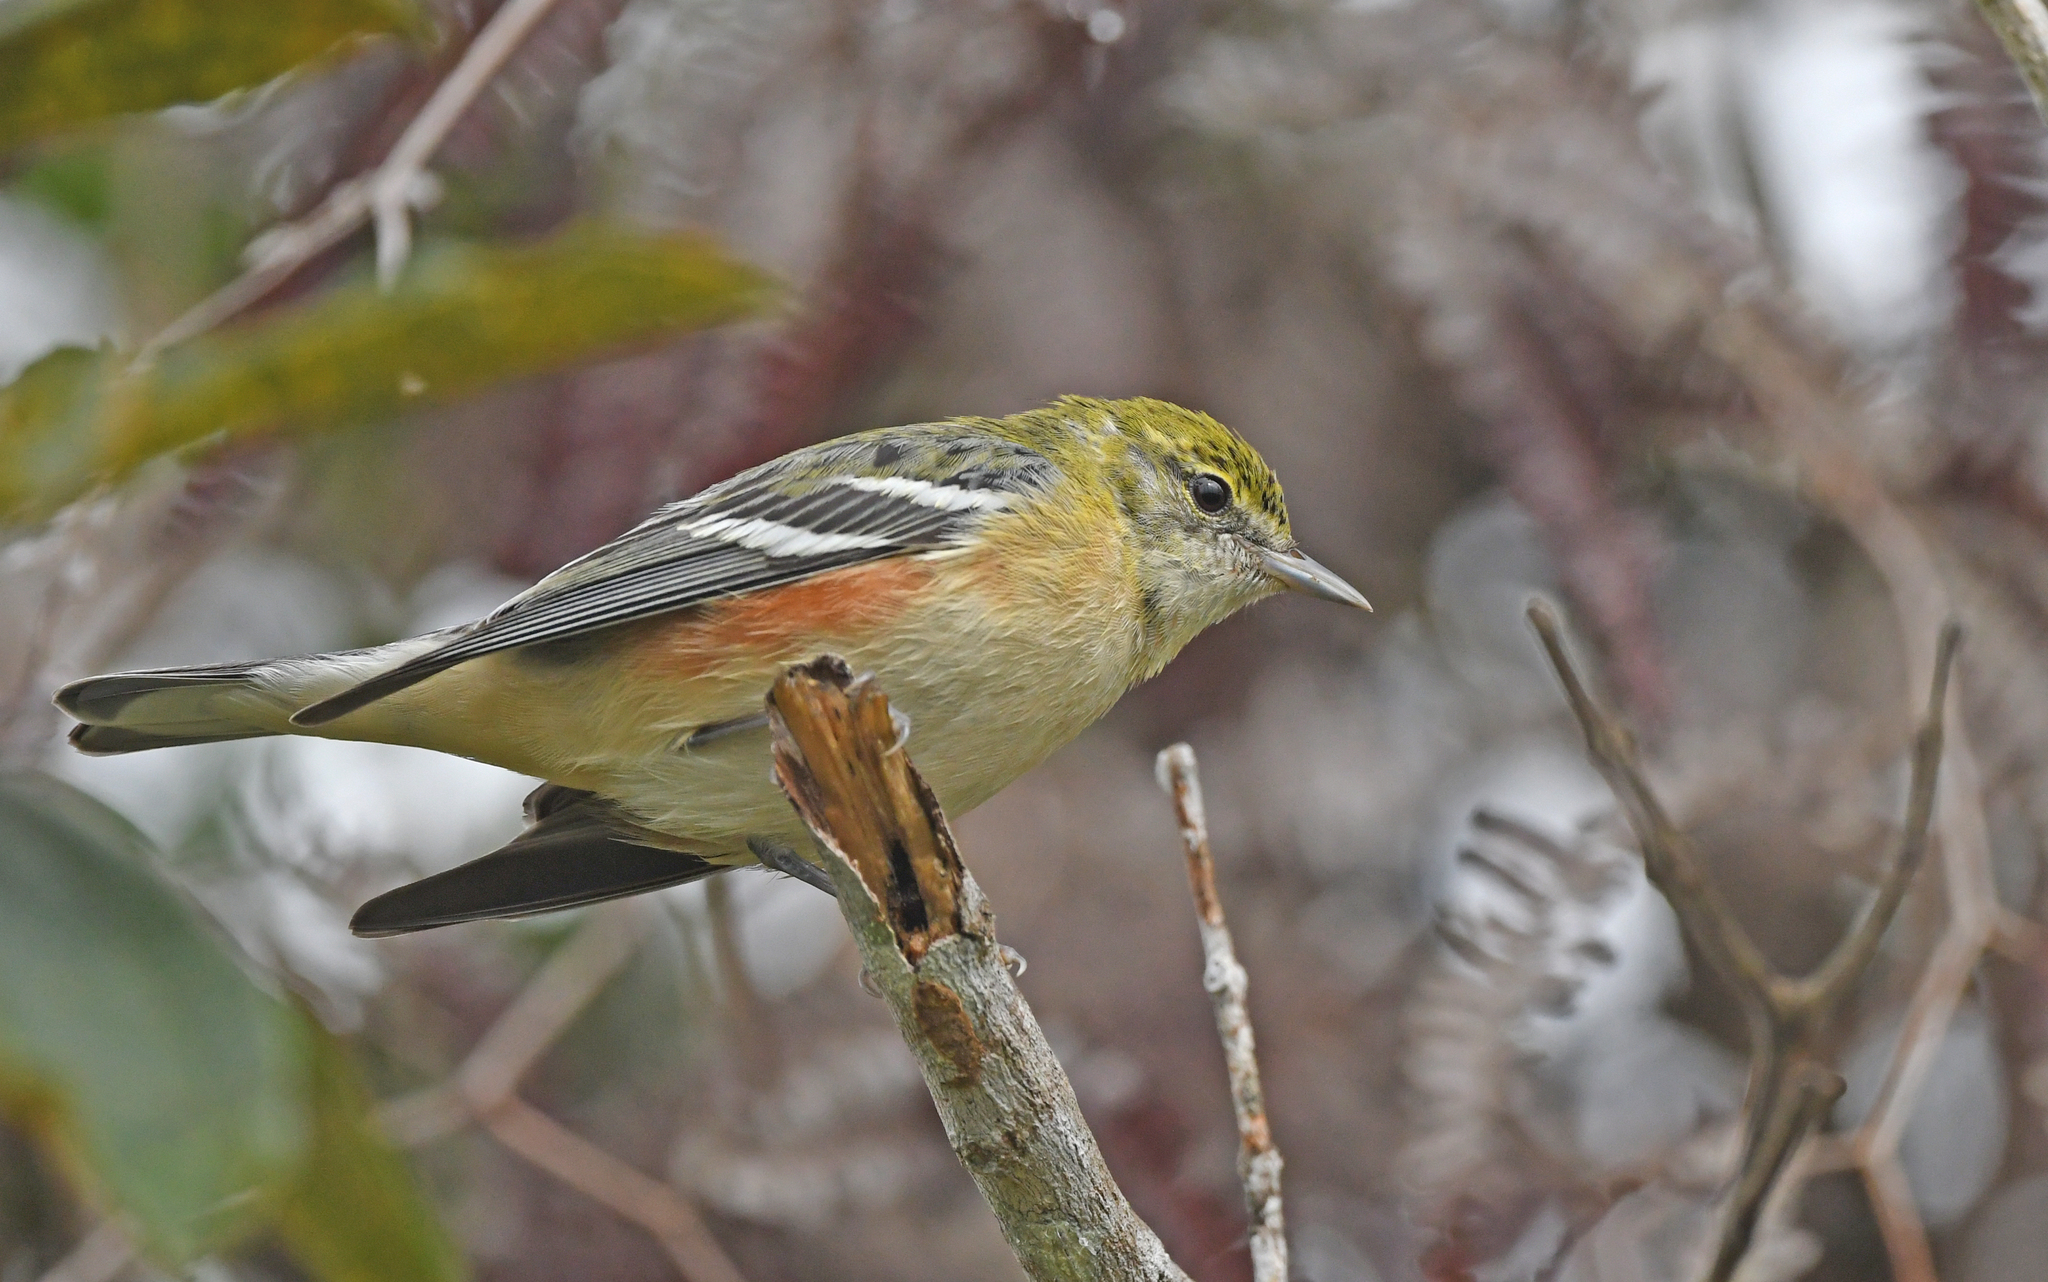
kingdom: Animalia
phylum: Chordata
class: Aves
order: Passeriformes
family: Parulidae
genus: Setophaga
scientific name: Setophaga castanea
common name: Bay-breasted warbler
